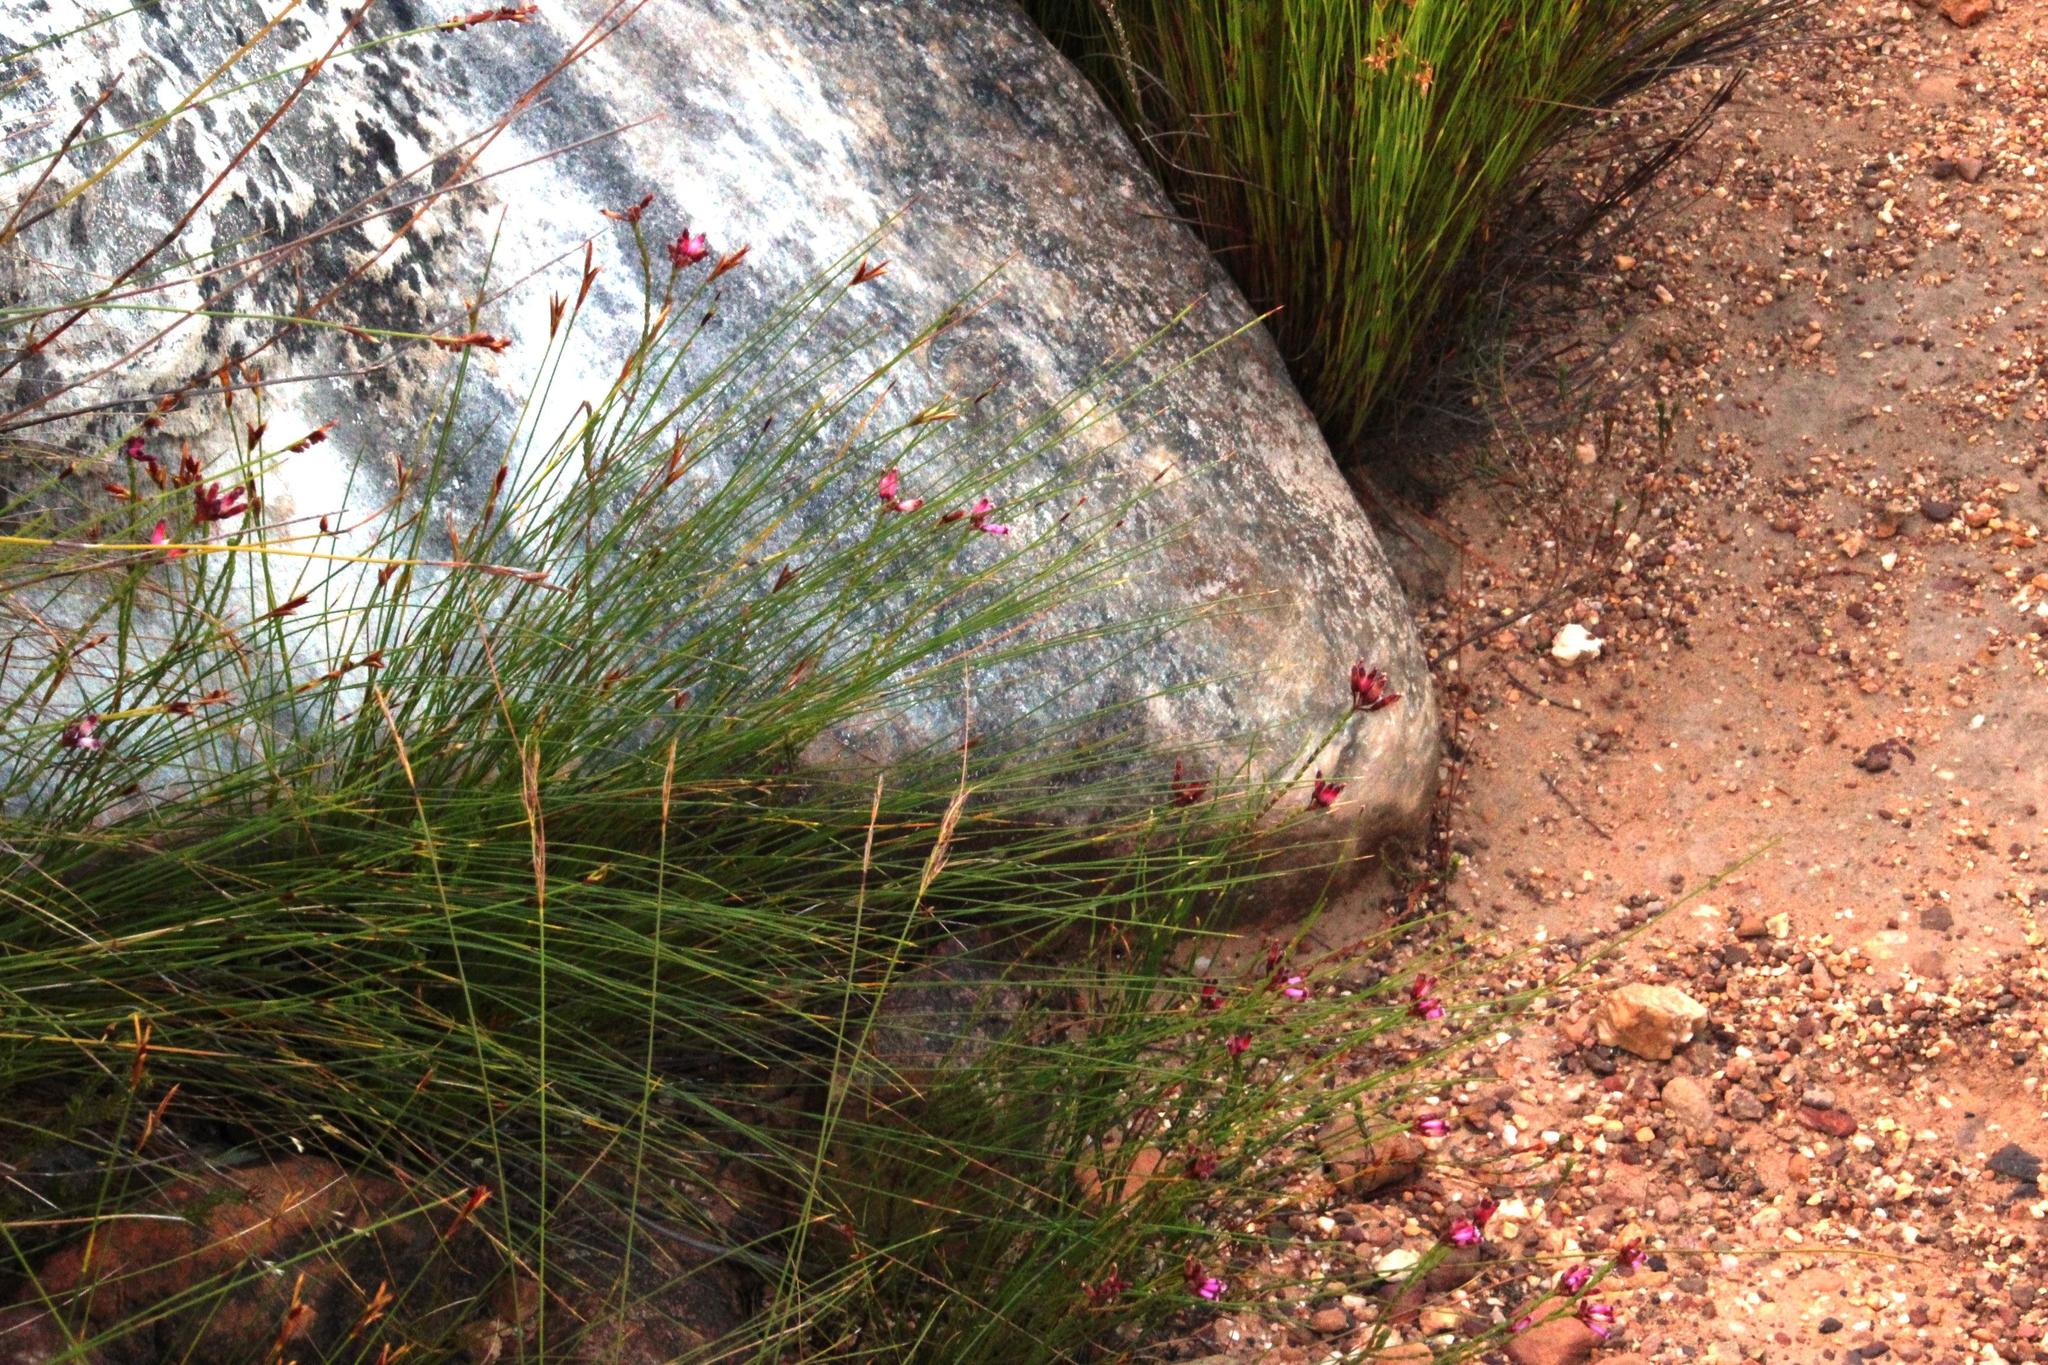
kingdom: Plantae
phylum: Tracheophyta
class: Magnoliopsida
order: Ericales
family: Ericaceae
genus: Erica
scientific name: Erica cristata
